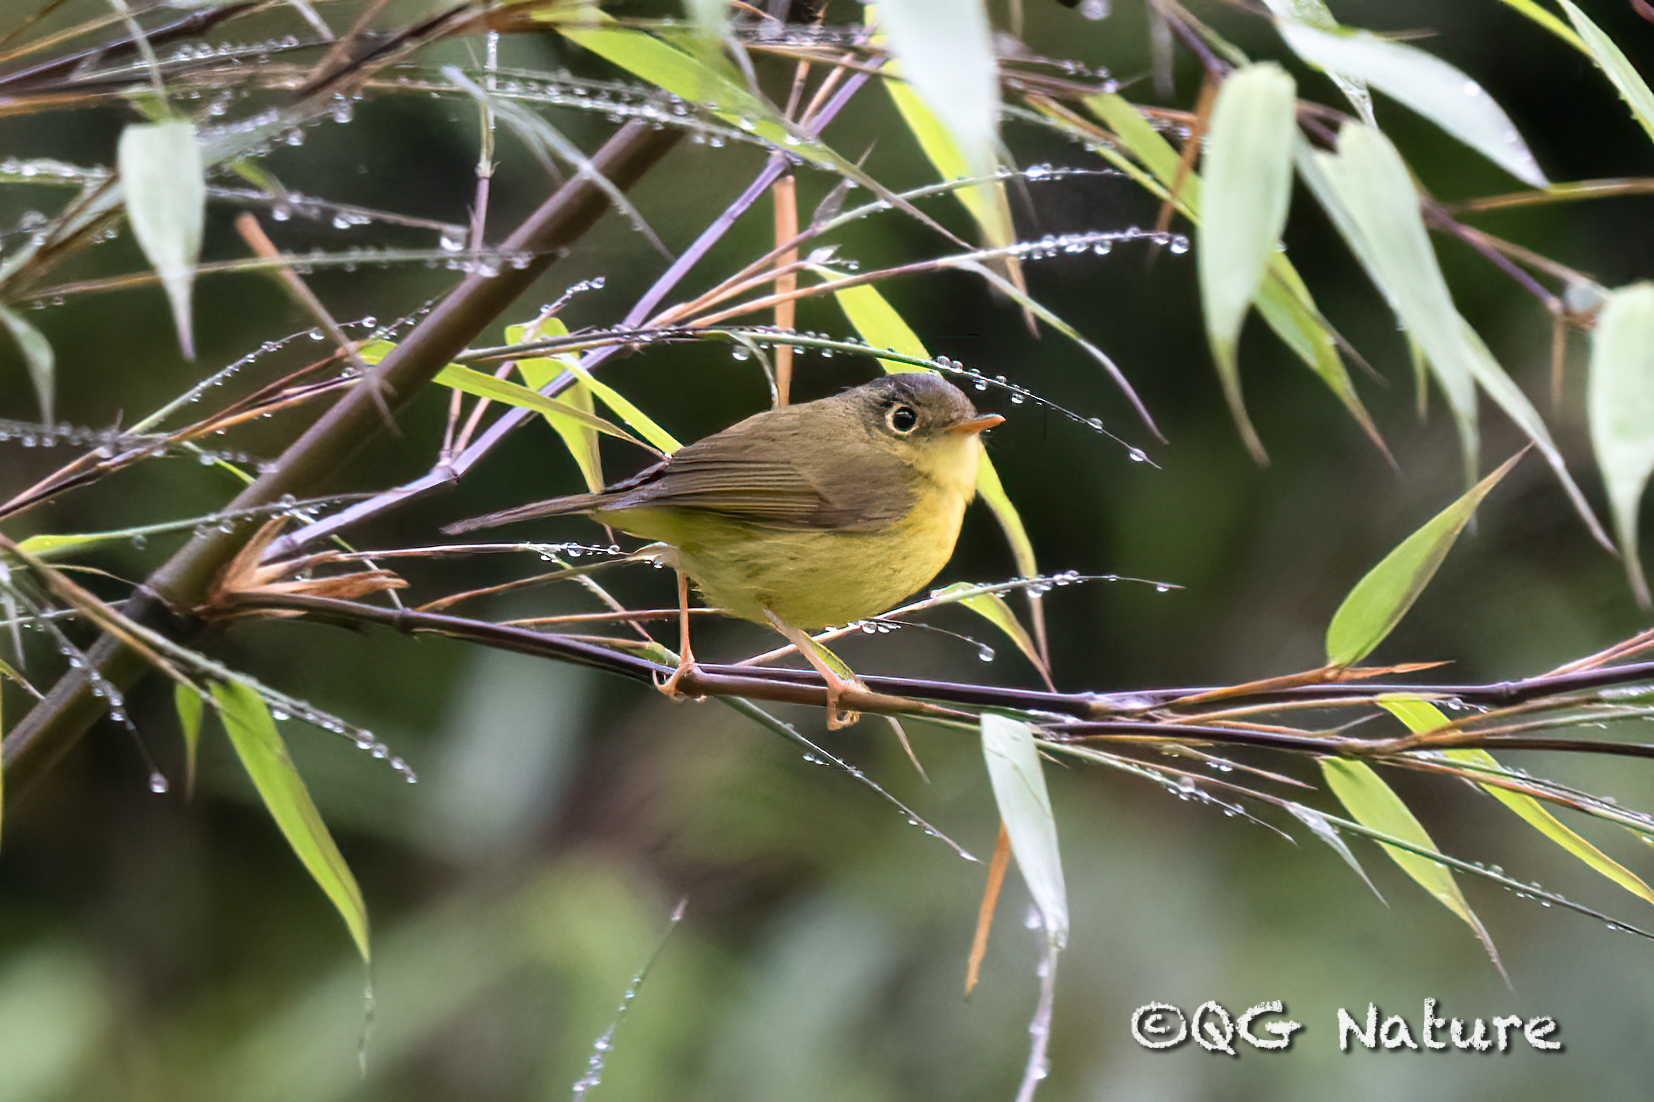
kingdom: Animalia
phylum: Chordata
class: Aves
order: Passeriformes
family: Phylloscopidae
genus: Seicercus
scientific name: Seicercus omeiensis
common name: Martens's warbler
